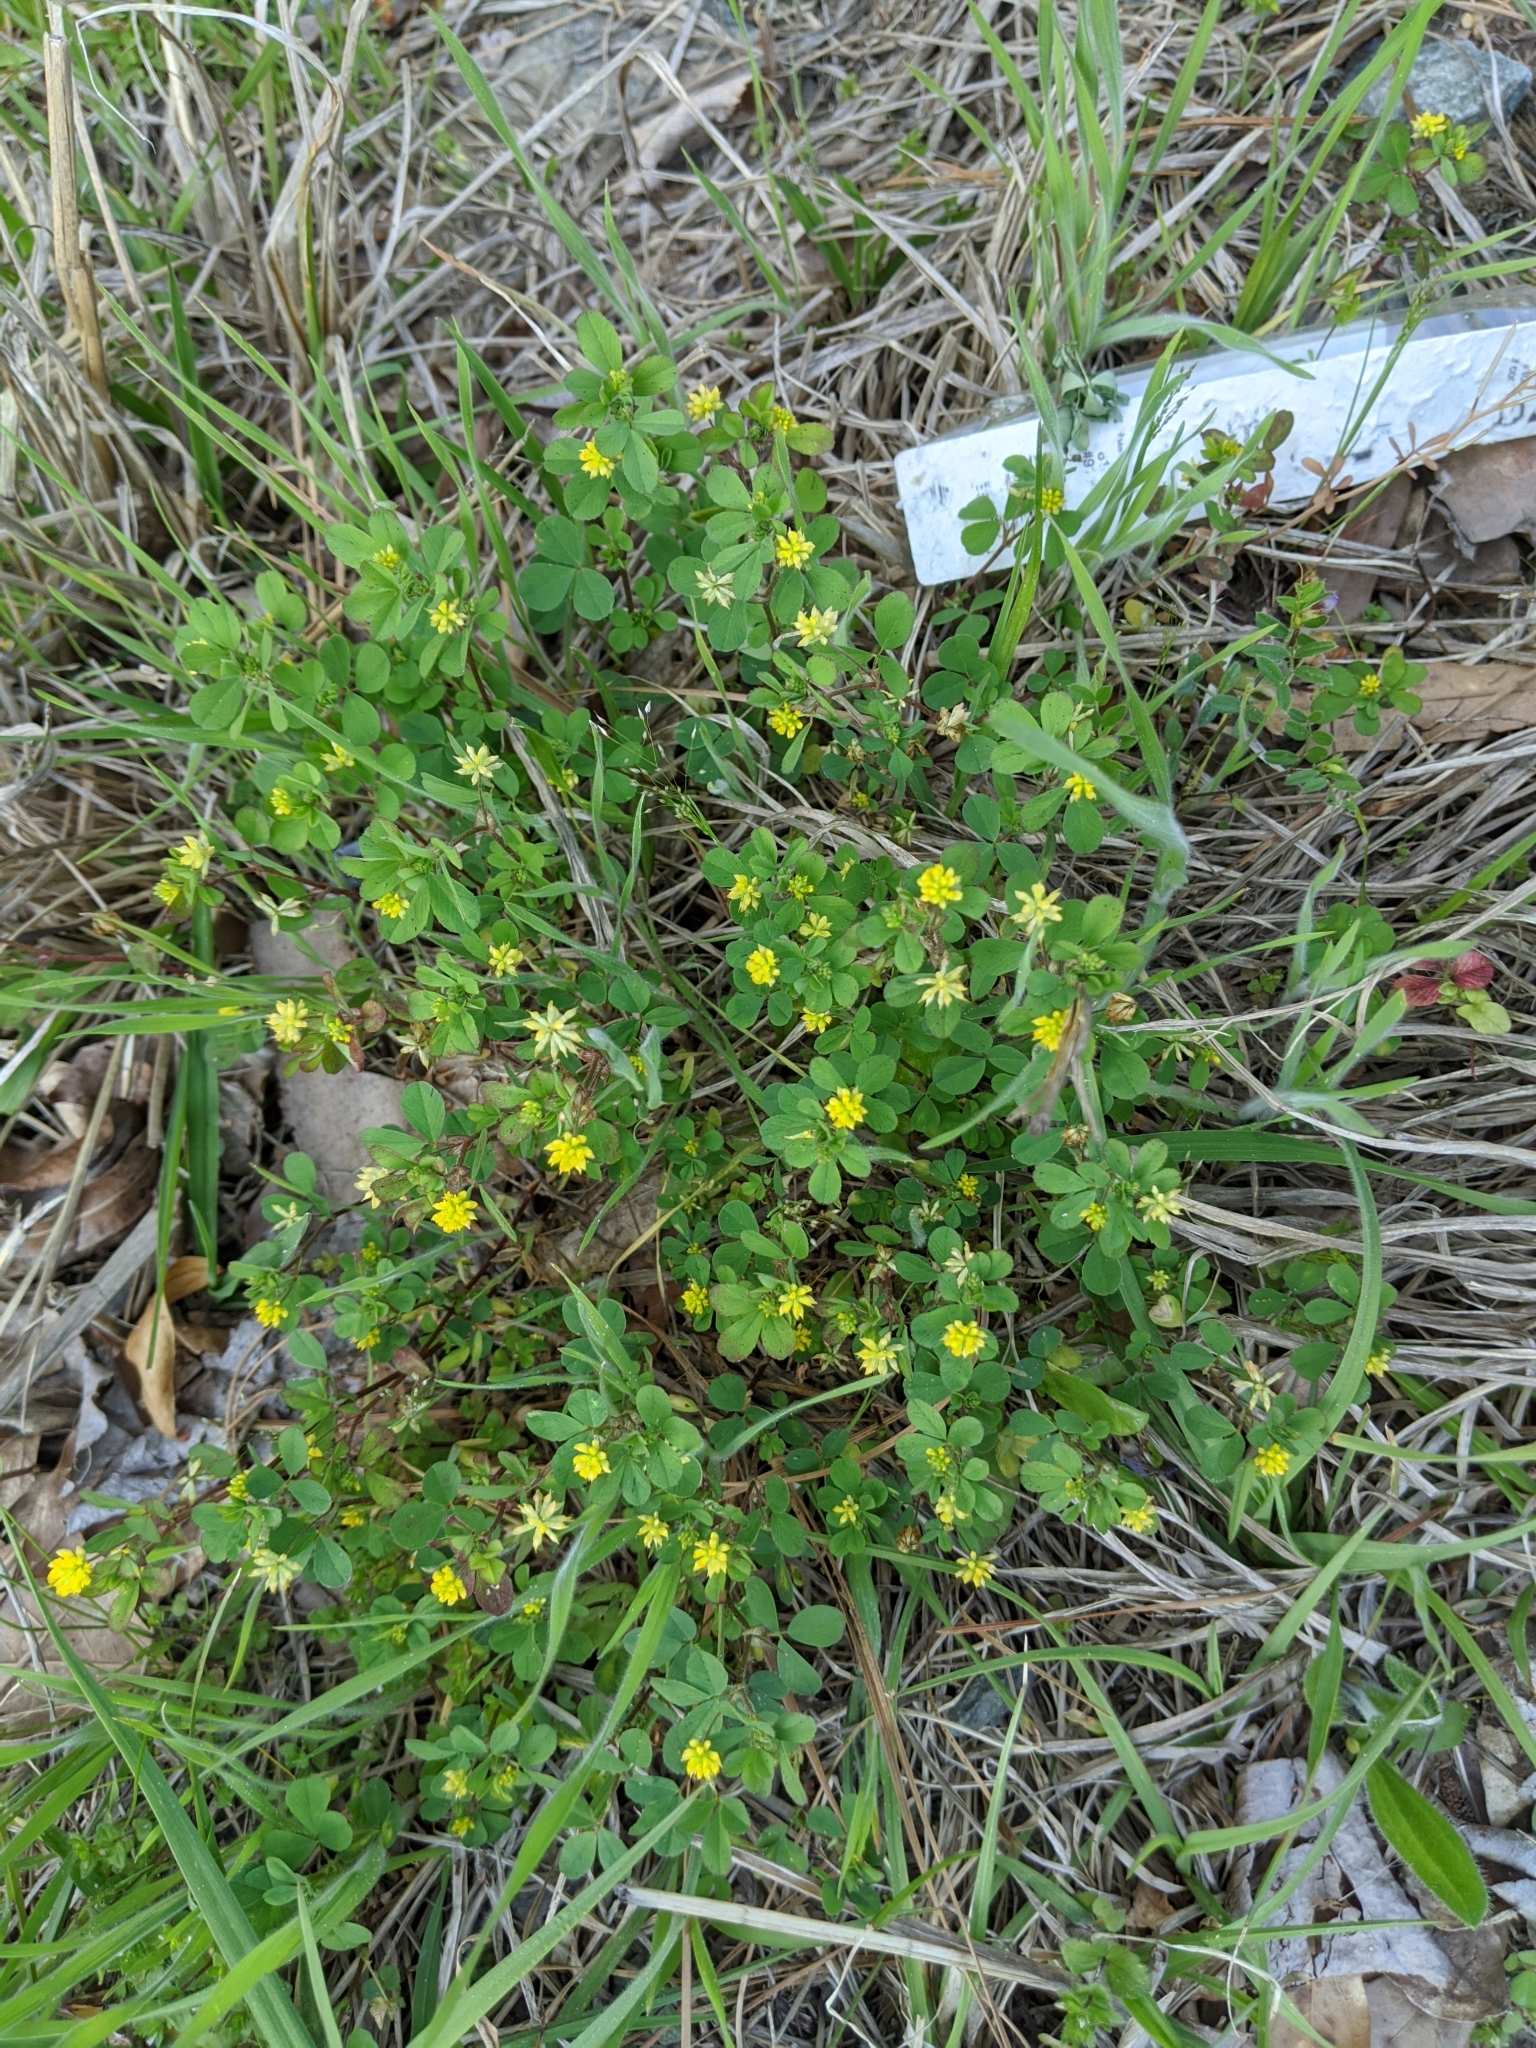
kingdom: Plantae
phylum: Tracheophyta
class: Magnoliopsida
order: Fabales
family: Fabaceae
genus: Trifolium
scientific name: Trifolium dubium
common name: Suckling clover
